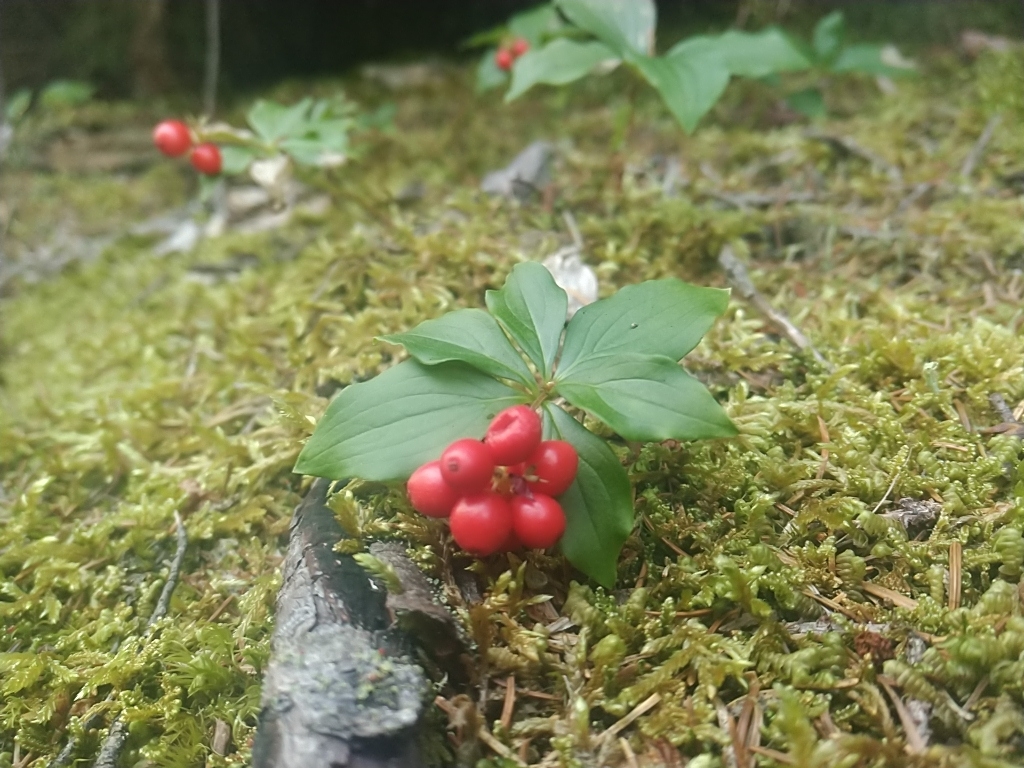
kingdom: Plantae
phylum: Tracheophyta
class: Magnoliopsida
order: Cornales
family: Cornaceae
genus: Cornus
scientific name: Cornus canadensis
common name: Creeping dogwood
